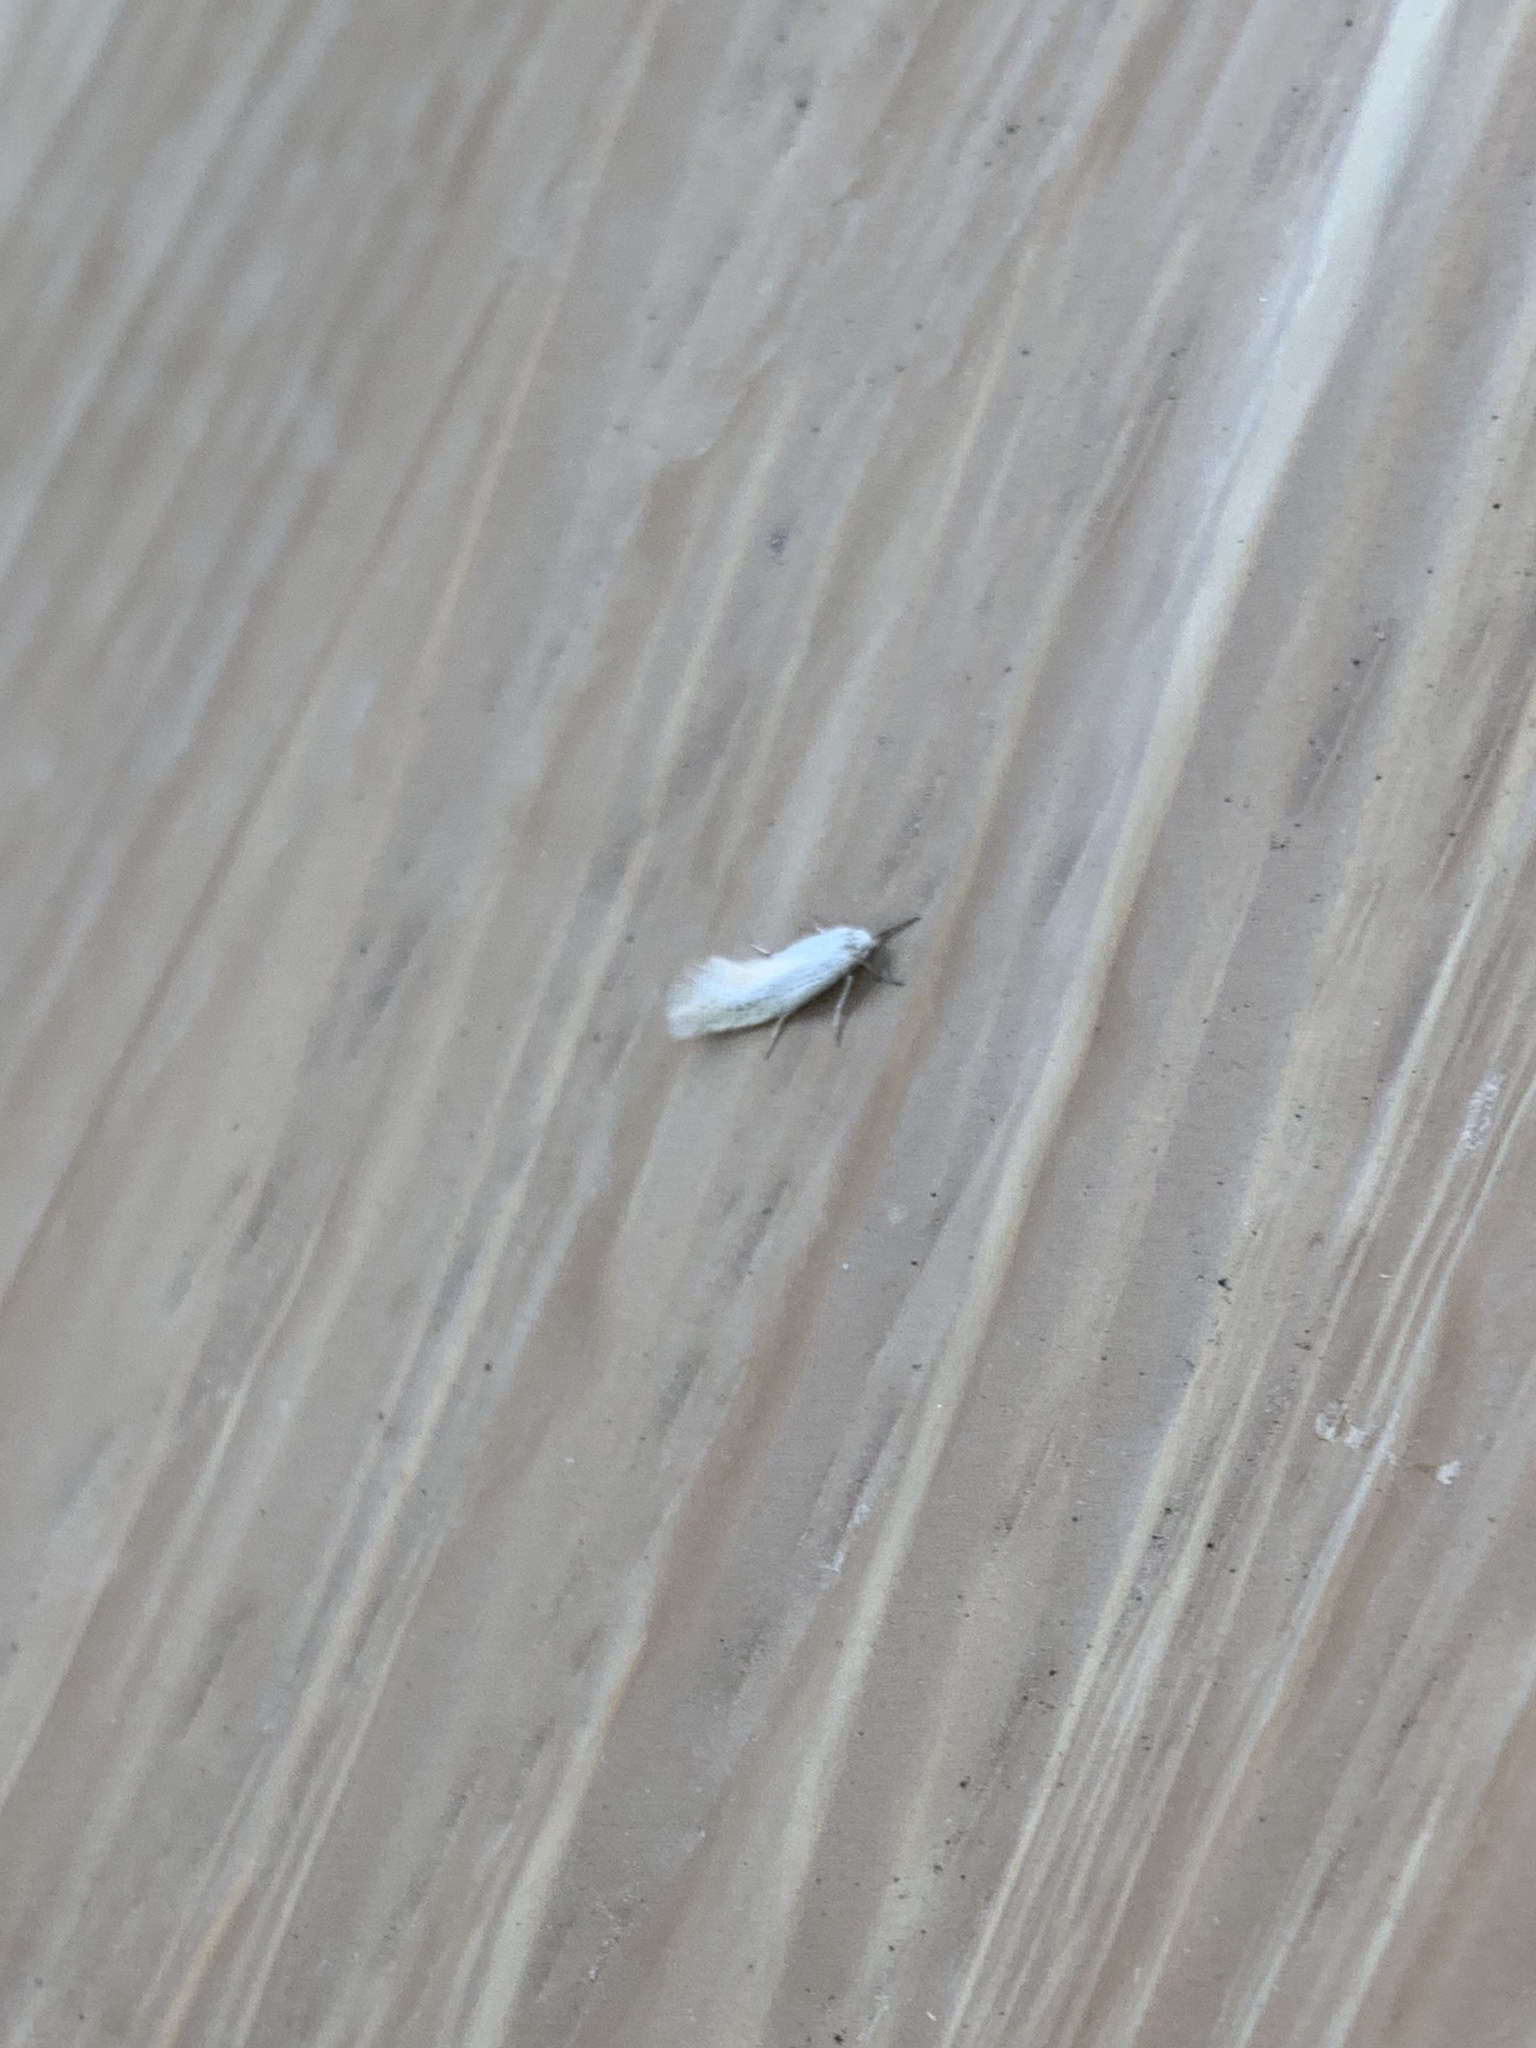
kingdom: Animalia
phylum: Arthropoda
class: Insecta
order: Lepidoptera
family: Prodoxidae
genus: Mesepiola
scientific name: Mesepiola specca
